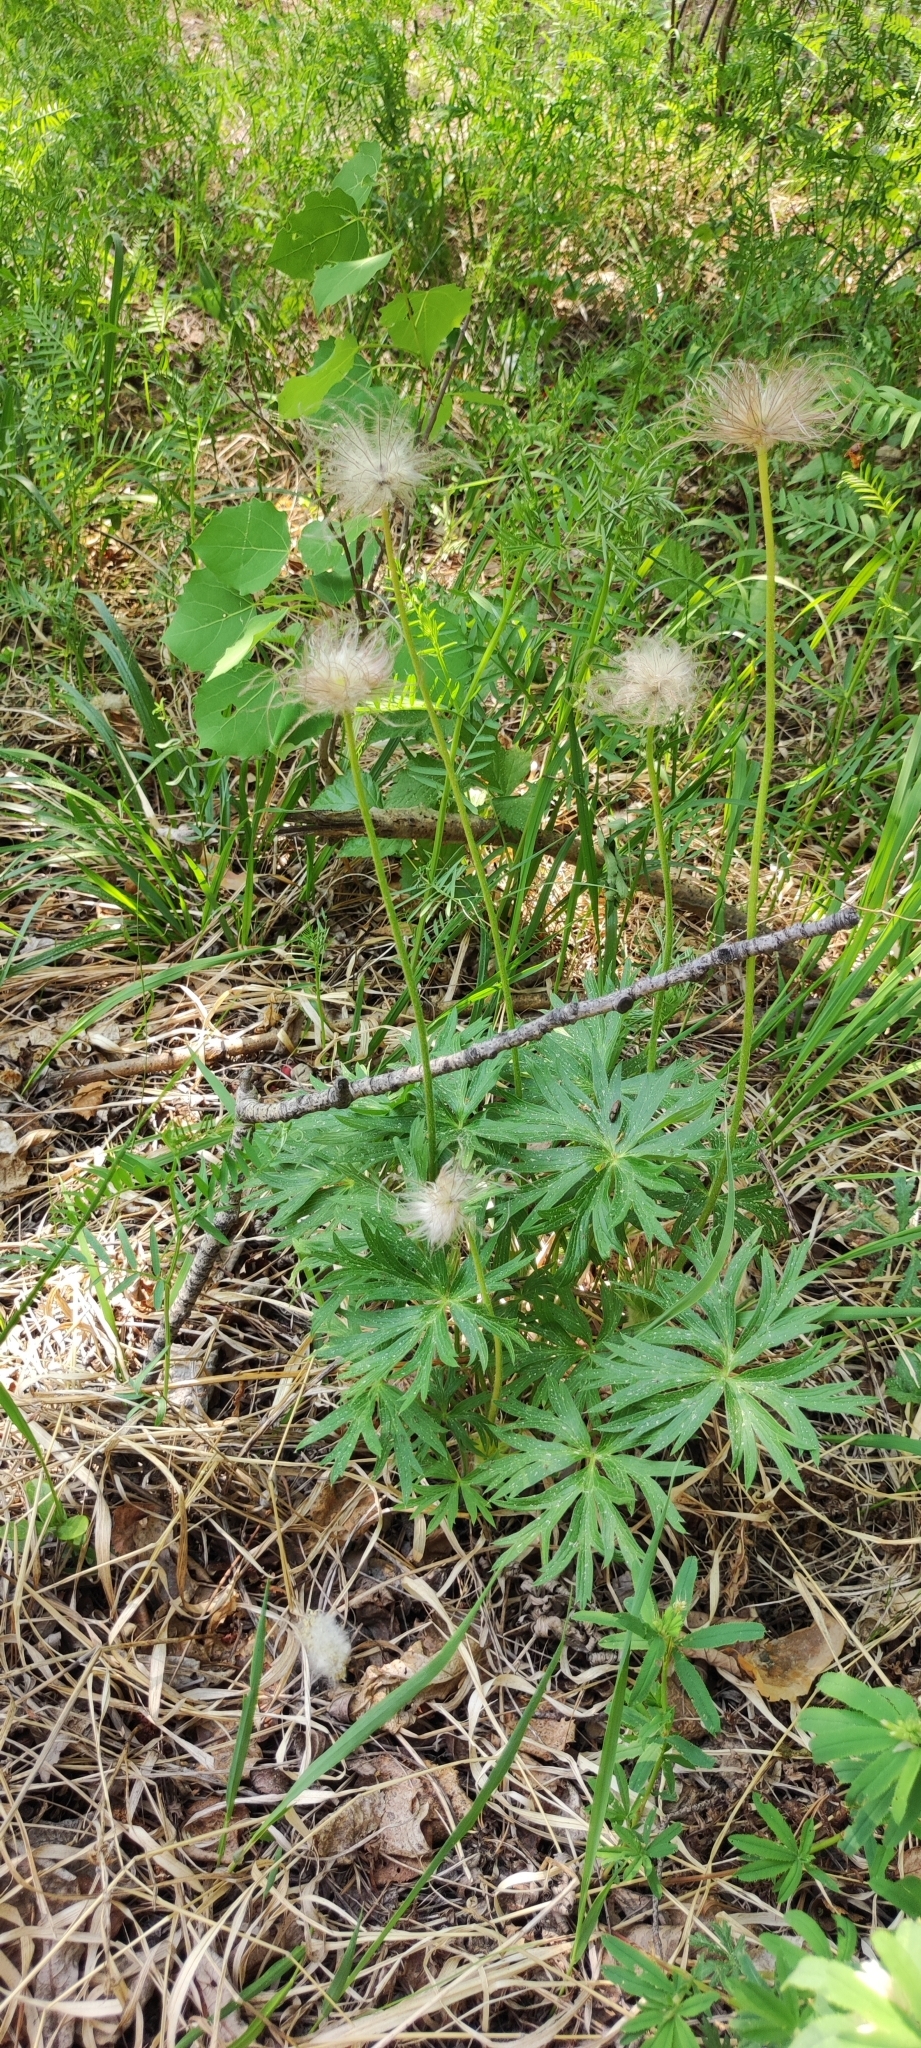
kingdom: Plantae
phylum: Tracheophyta
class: Magnoliopsida
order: Ranunculales
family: Ranunculaceae
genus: Pulsatilla
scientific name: Pulsatilla patens
